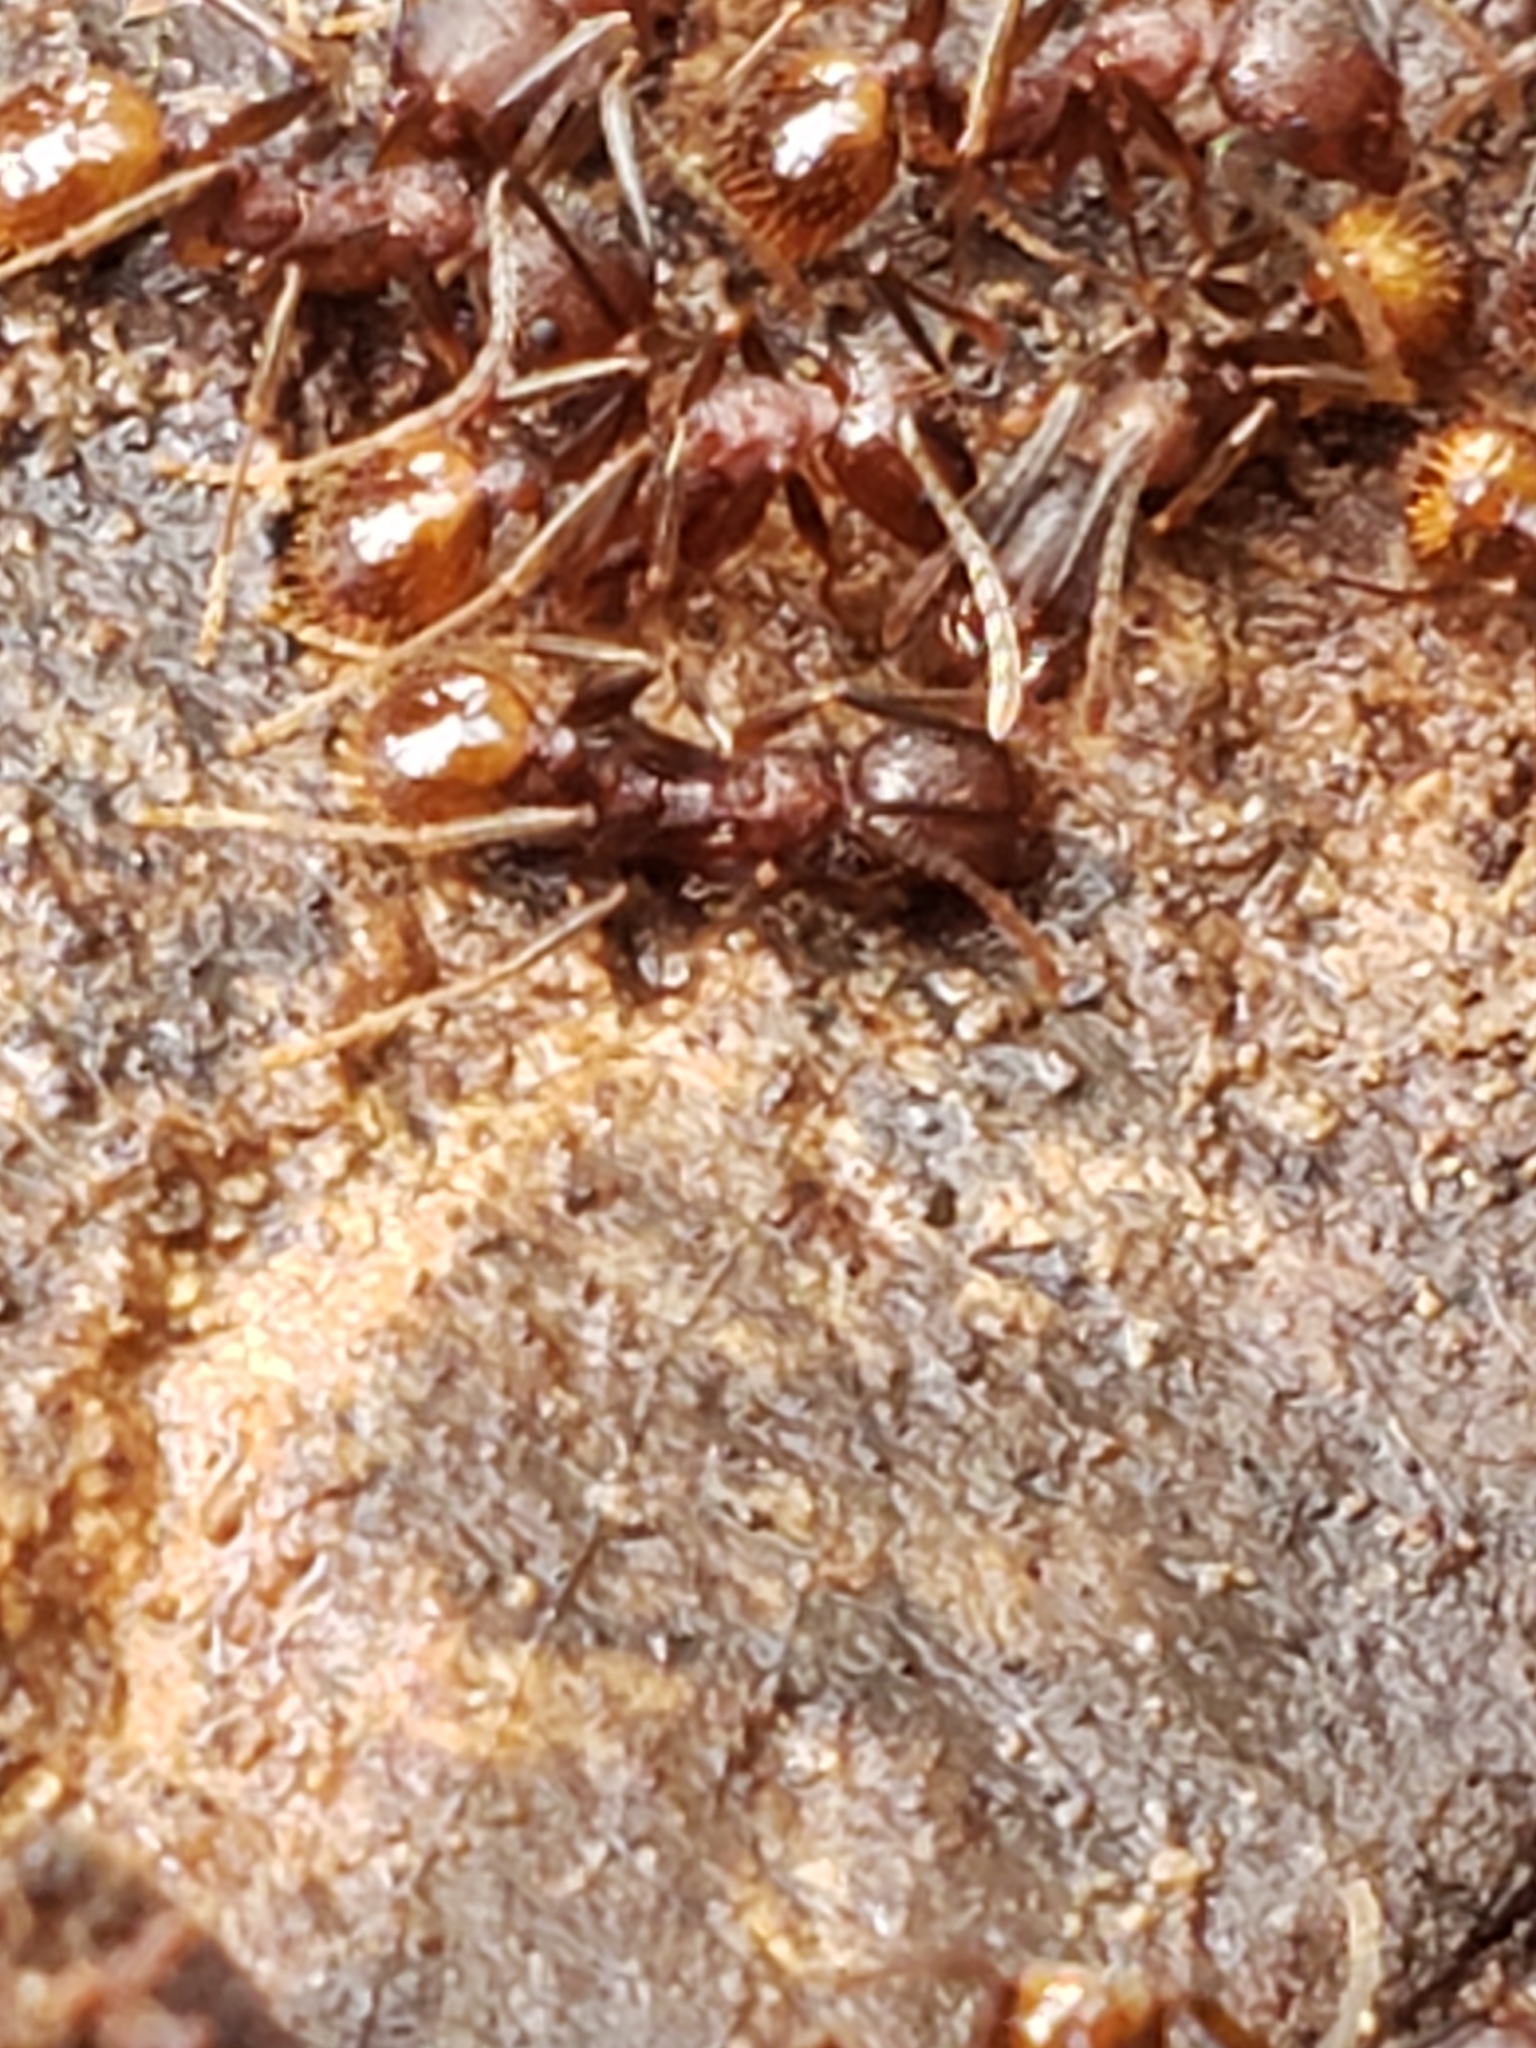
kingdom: Animalia
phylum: Arthropoda
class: Insecta
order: Hymenoptera
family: Formicidae
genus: Aphaenogaster
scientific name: Aphaenogaster tennesseensis
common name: Tennessee thread-waisted ant
